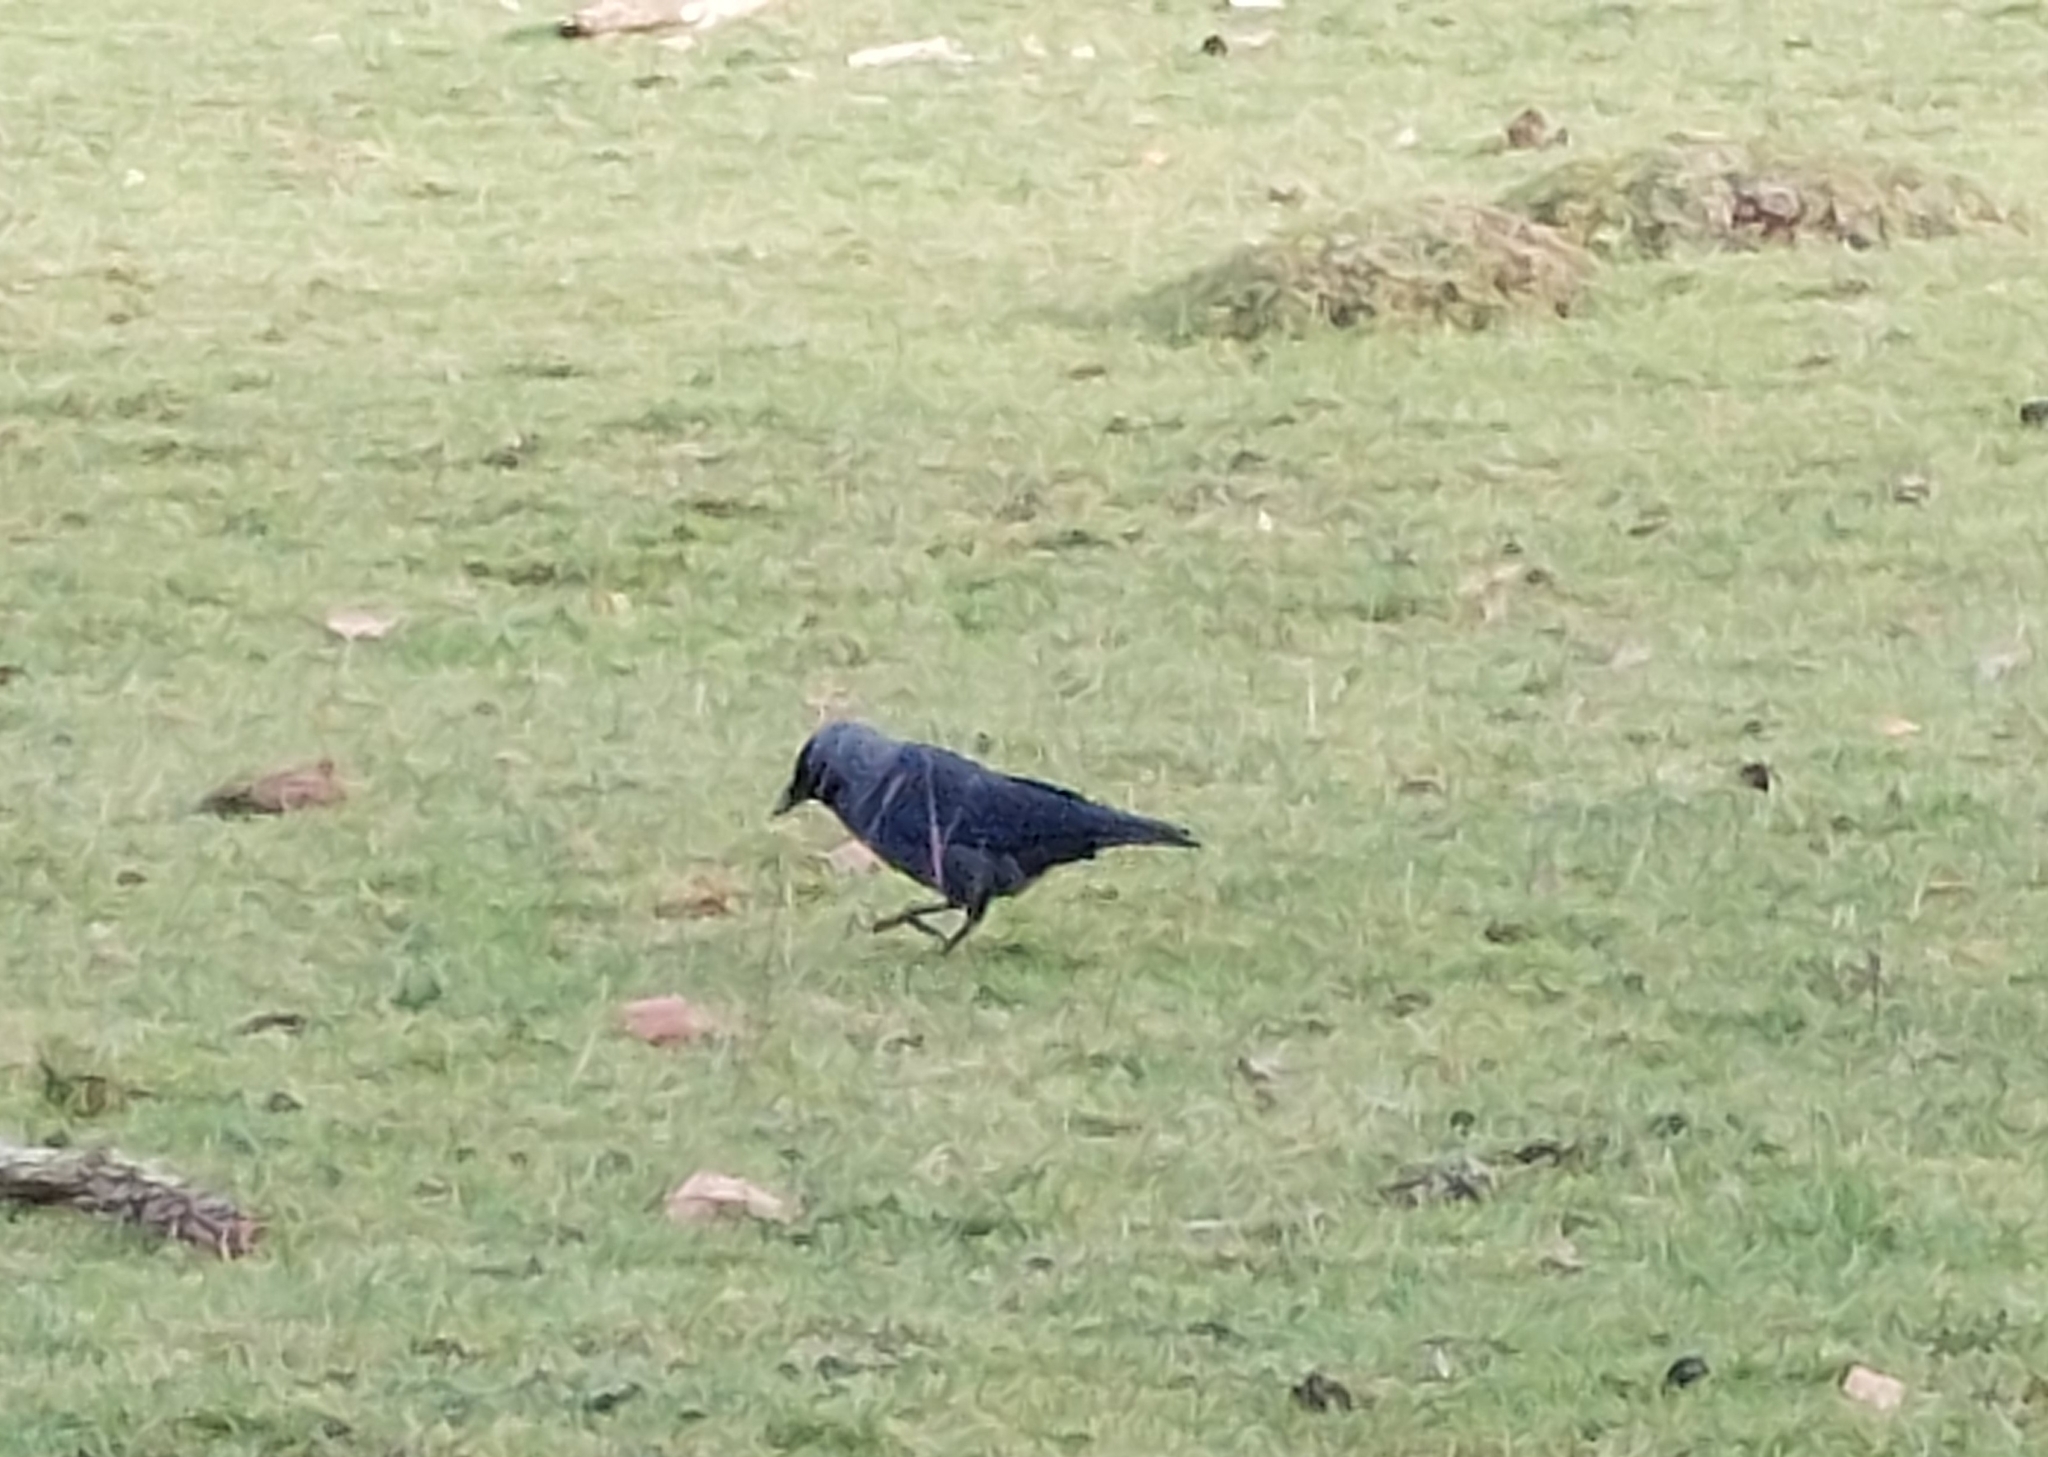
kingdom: Animalia
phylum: Chordata
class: Aves
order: Passeriformes
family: Corvidae
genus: Coloeus
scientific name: Coloeus monedula
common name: Western jackdaw
